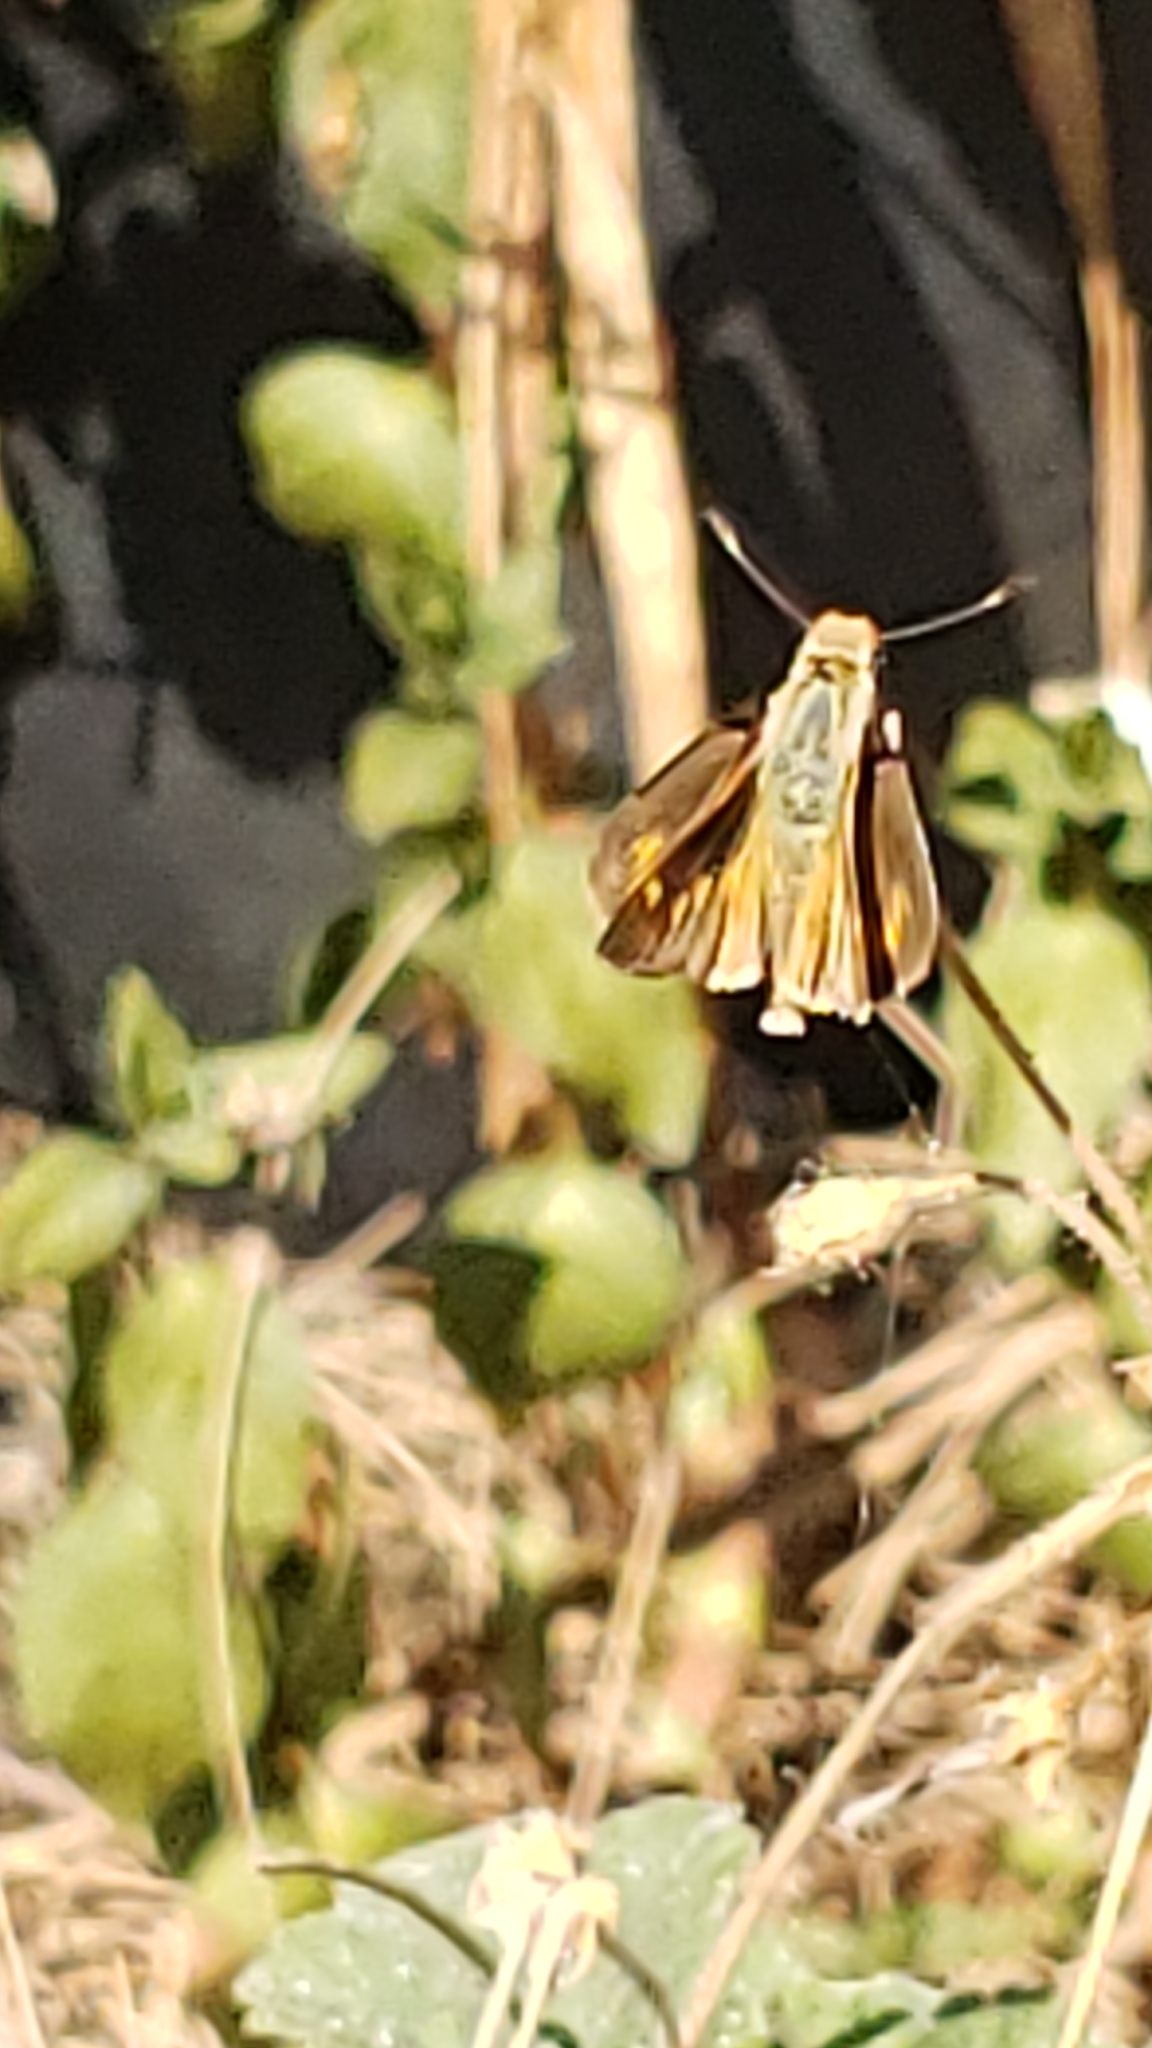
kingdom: Animalia
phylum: Arthropoda
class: Insecta
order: Lepidoptera
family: Hesperiidae
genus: Lon
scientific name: Lon melane
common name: Umber skipper
